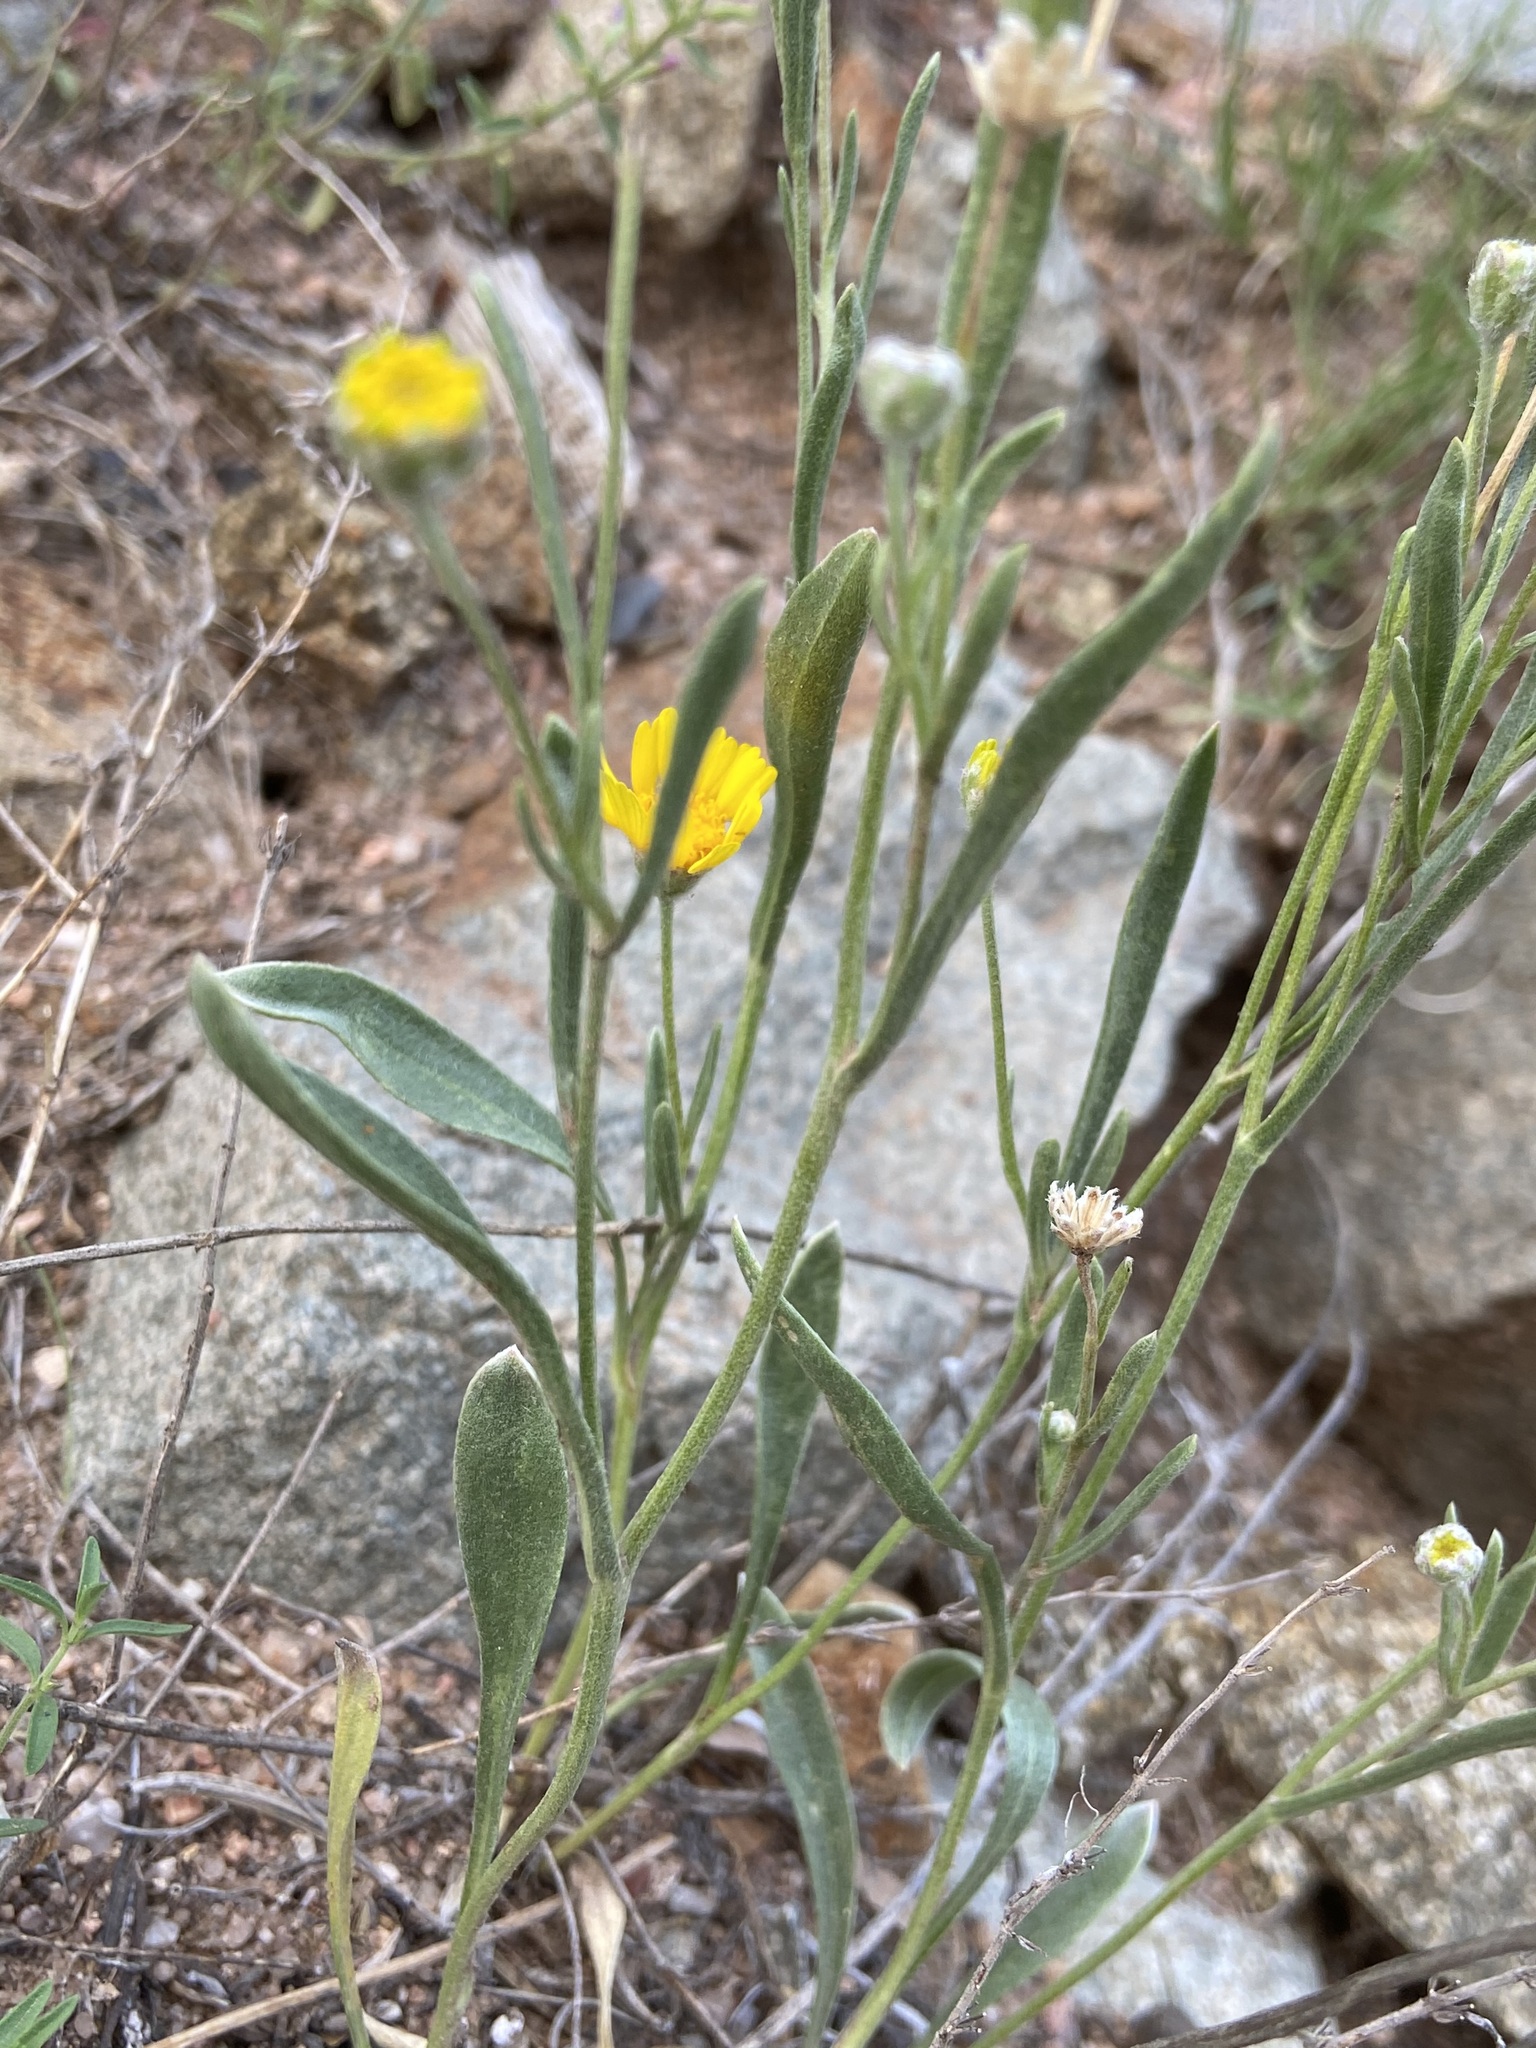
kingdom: Plantae
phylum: Tracheophyta
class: Magnoliopsida
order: Asterales
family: Asteraceae
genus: Tetraneuris
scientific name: Tetraneuris argentea
